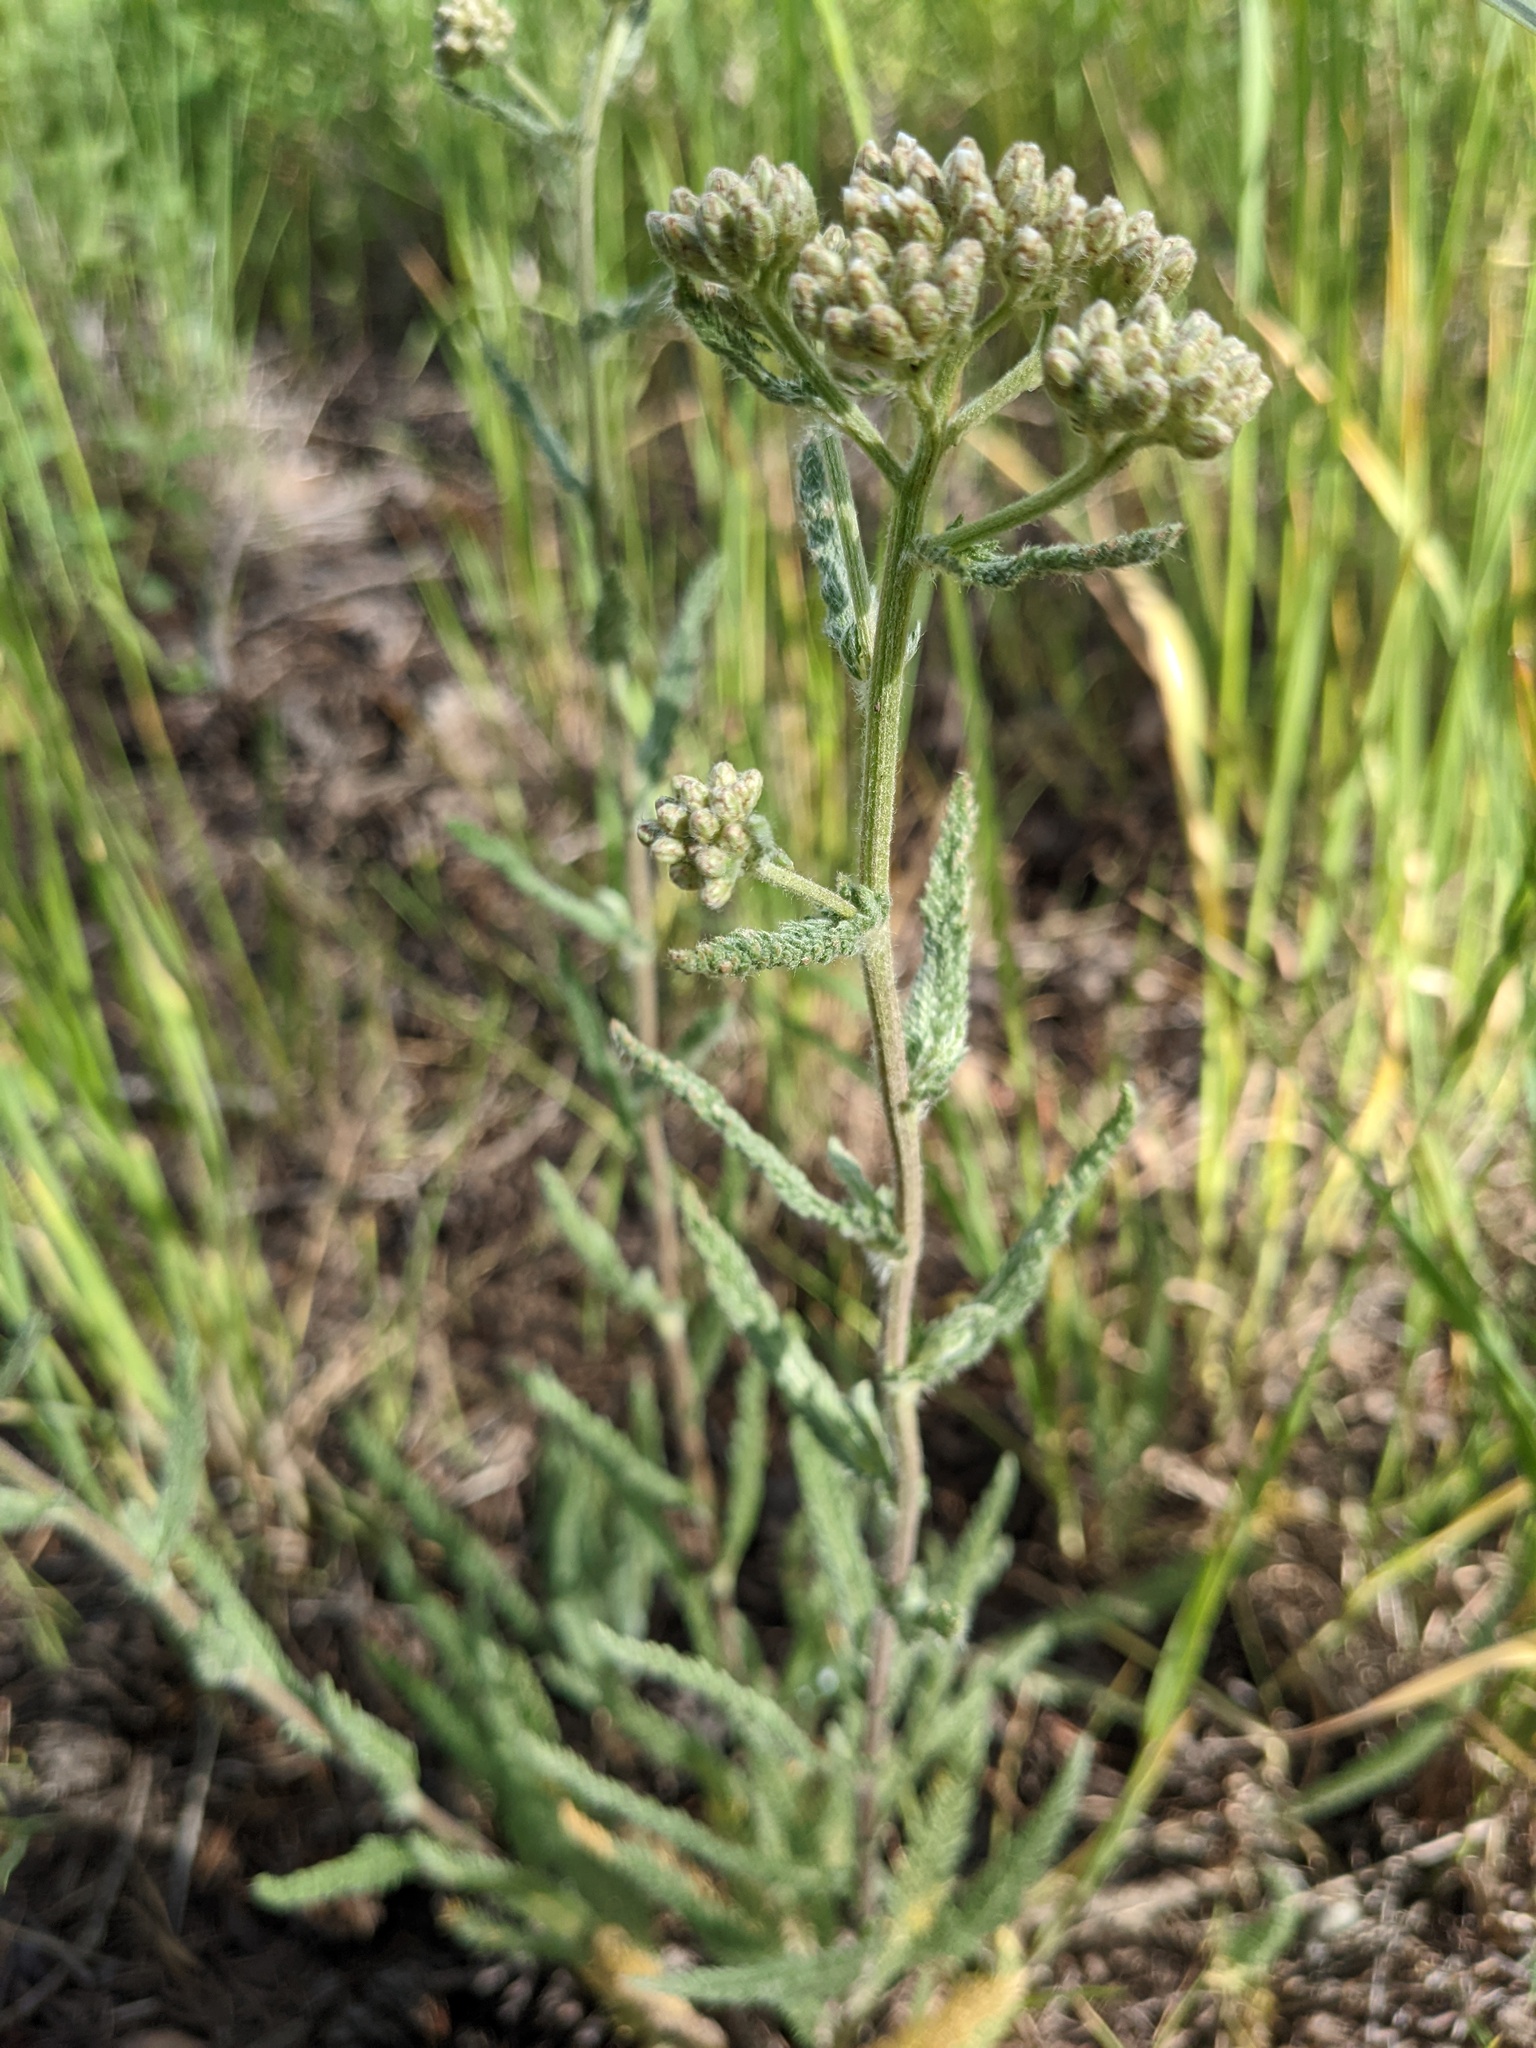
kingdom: Plantae
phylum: Tracheophyta
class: Magnoliopsida
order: Asterales
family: Asteraceae
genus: Achillea
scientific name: Achillea millefolium
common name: Yarrow
